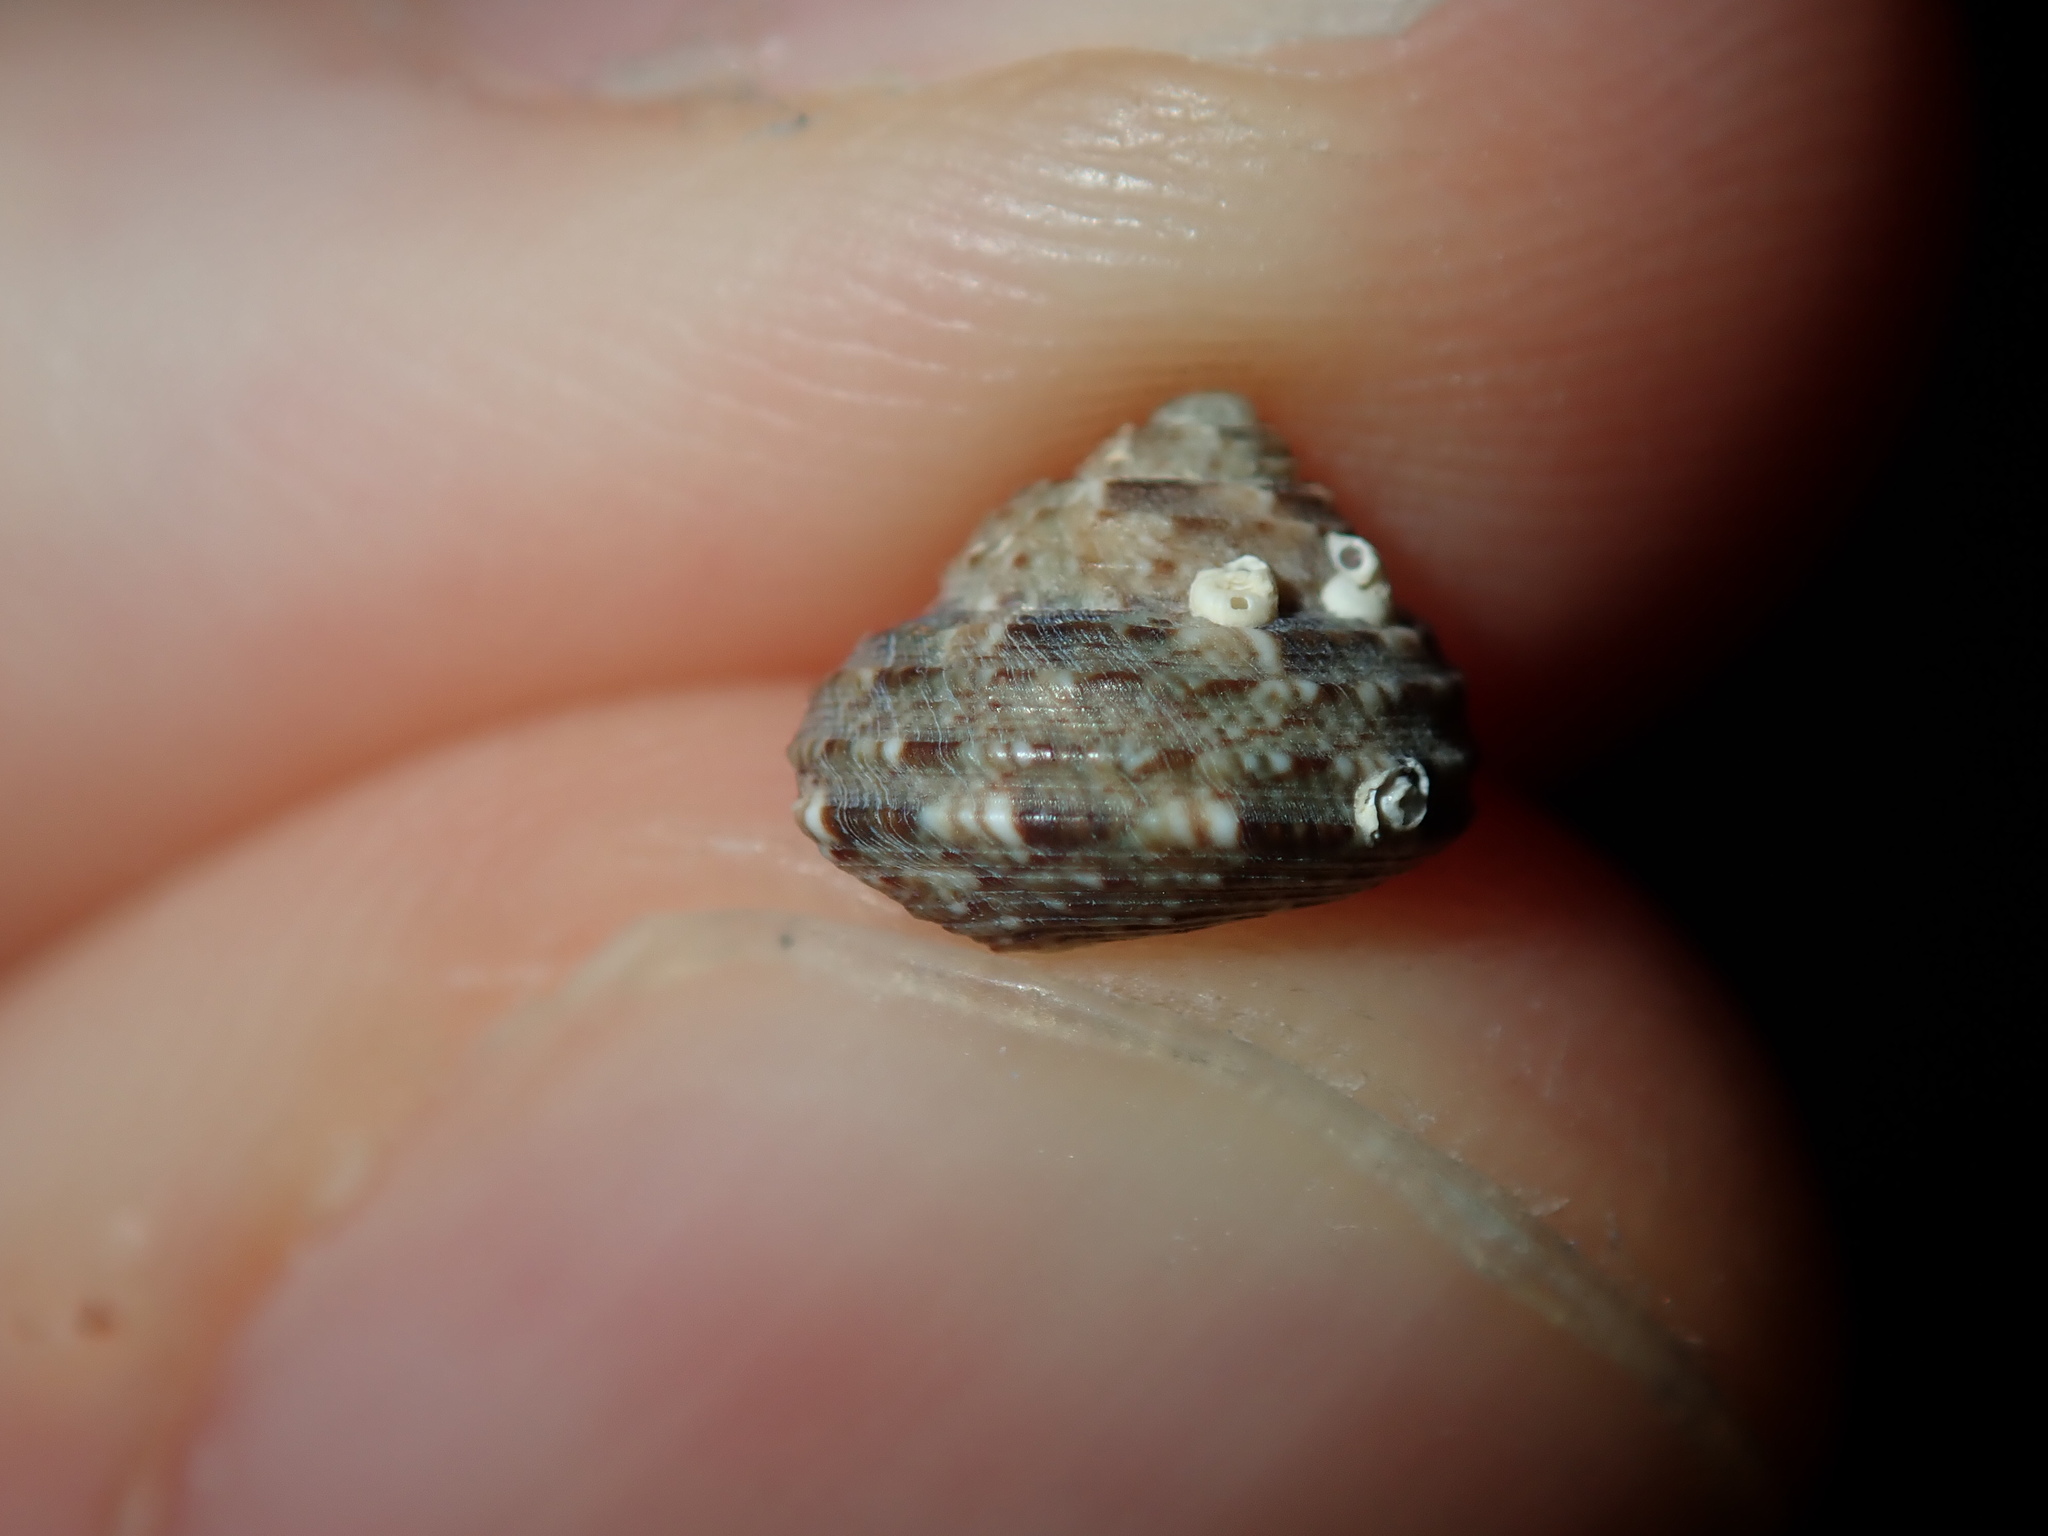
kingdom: Animalia
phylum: Mollusca
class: Gastropoda
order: Trochida
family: Trochidae
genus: Eurytrochus
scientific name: Eurytrochus strangei
